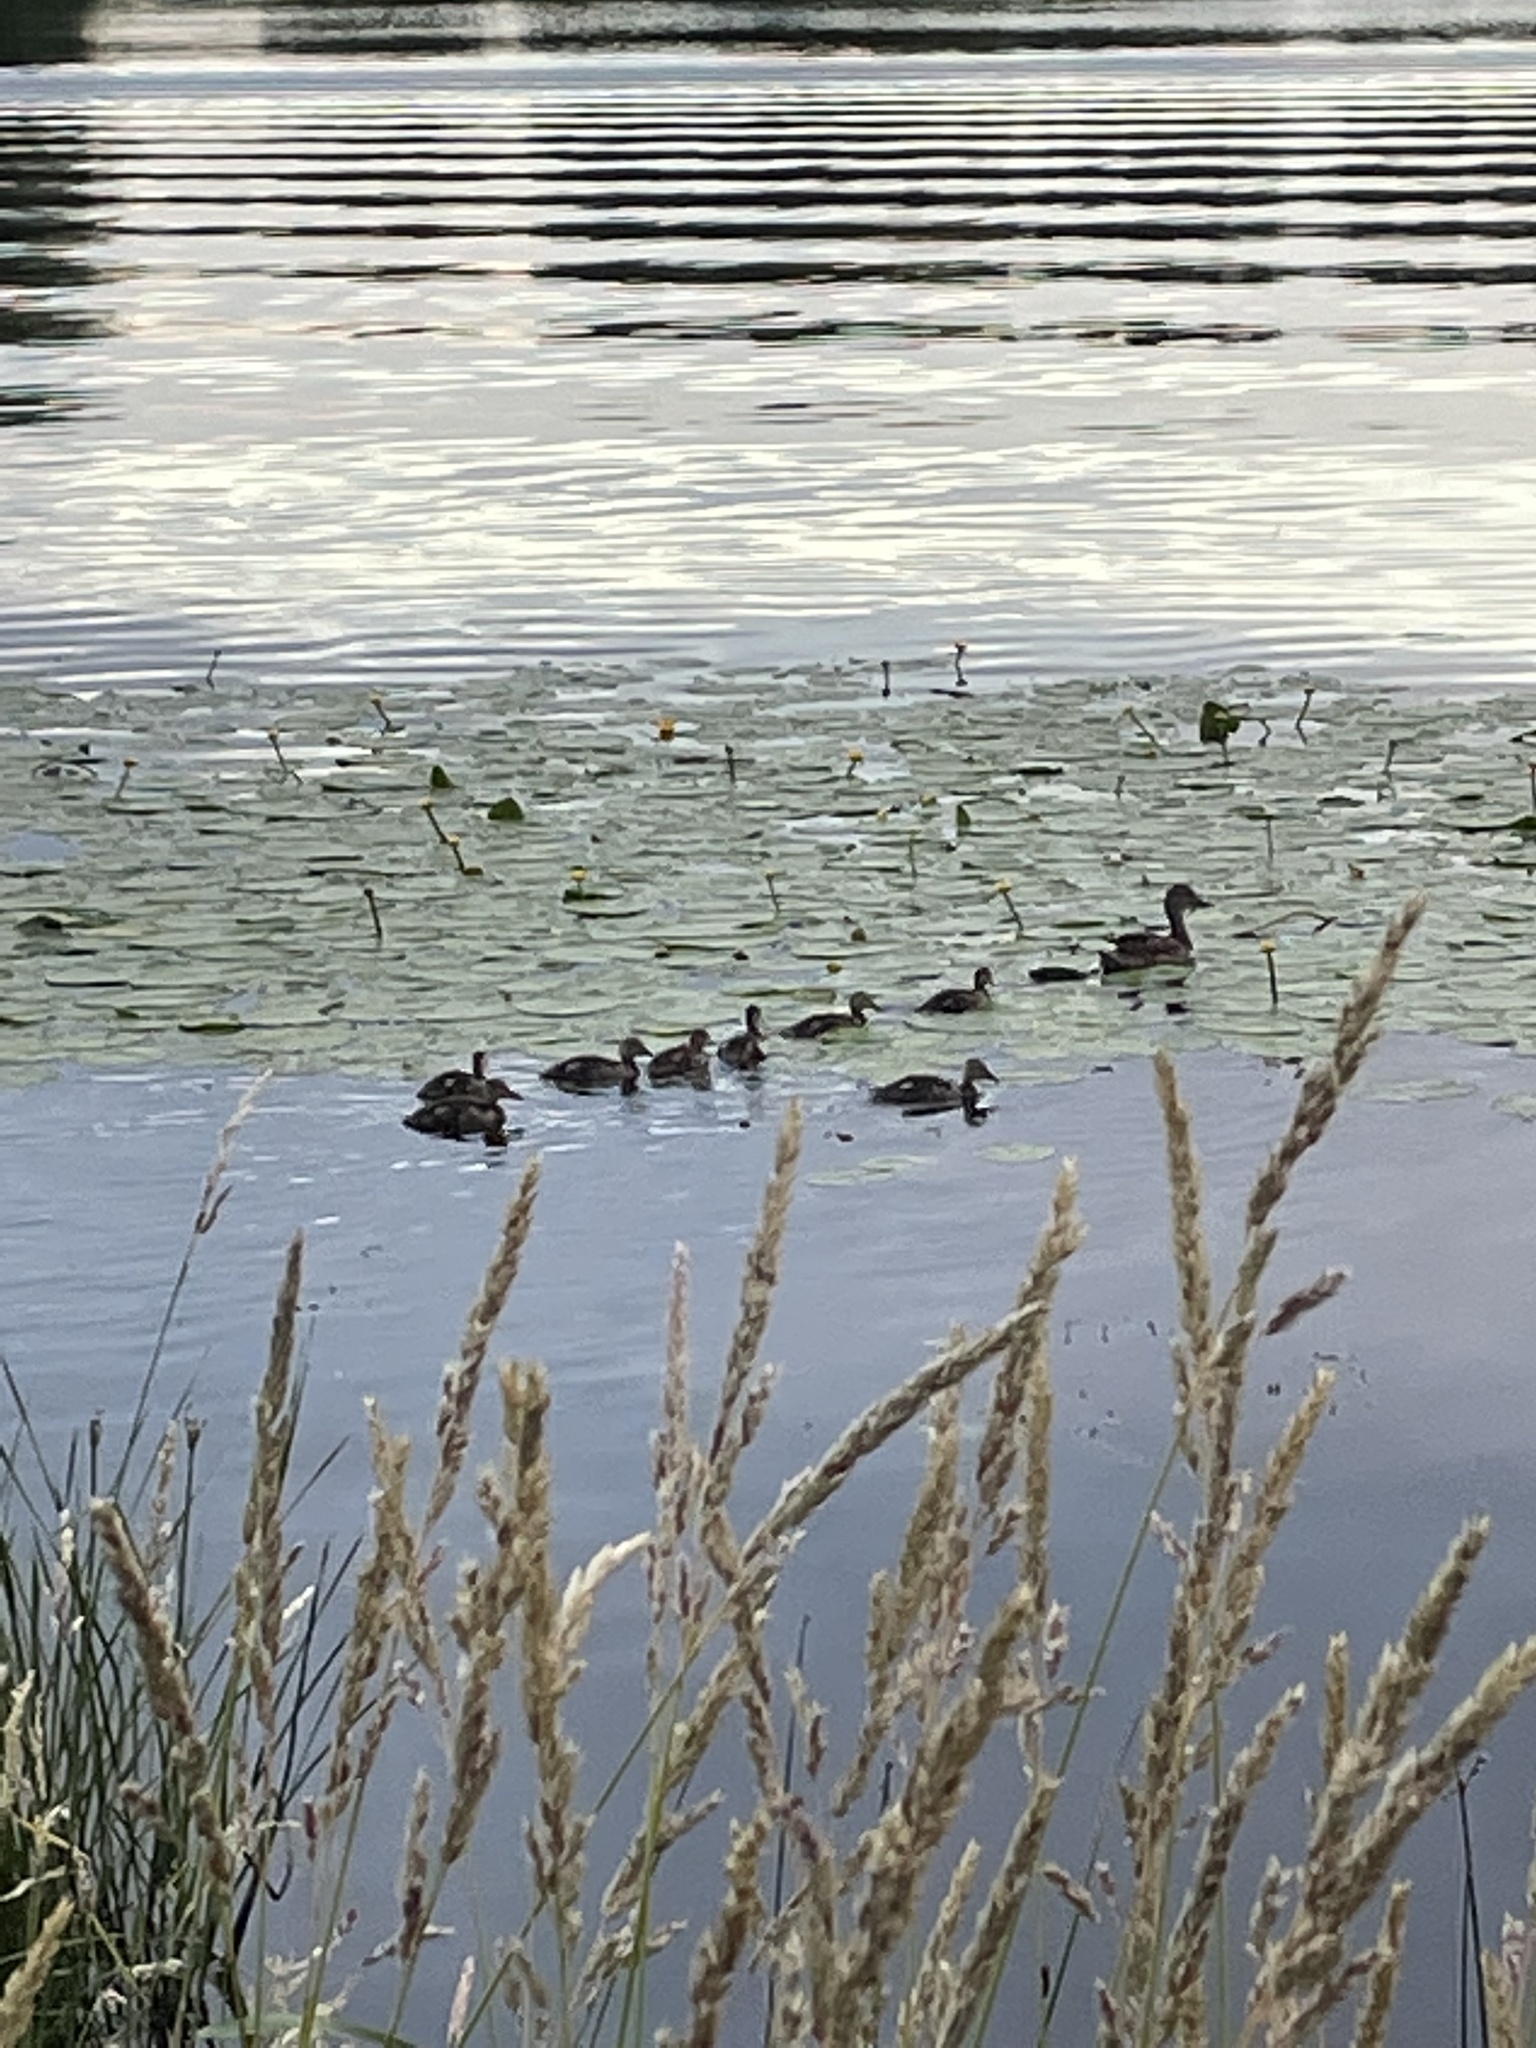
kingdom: Animalia
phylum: Chordata
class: Aves
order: Anseriformes
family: Anatidae
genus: Anas
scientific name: Anas platyrhynchos
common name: Mallard
